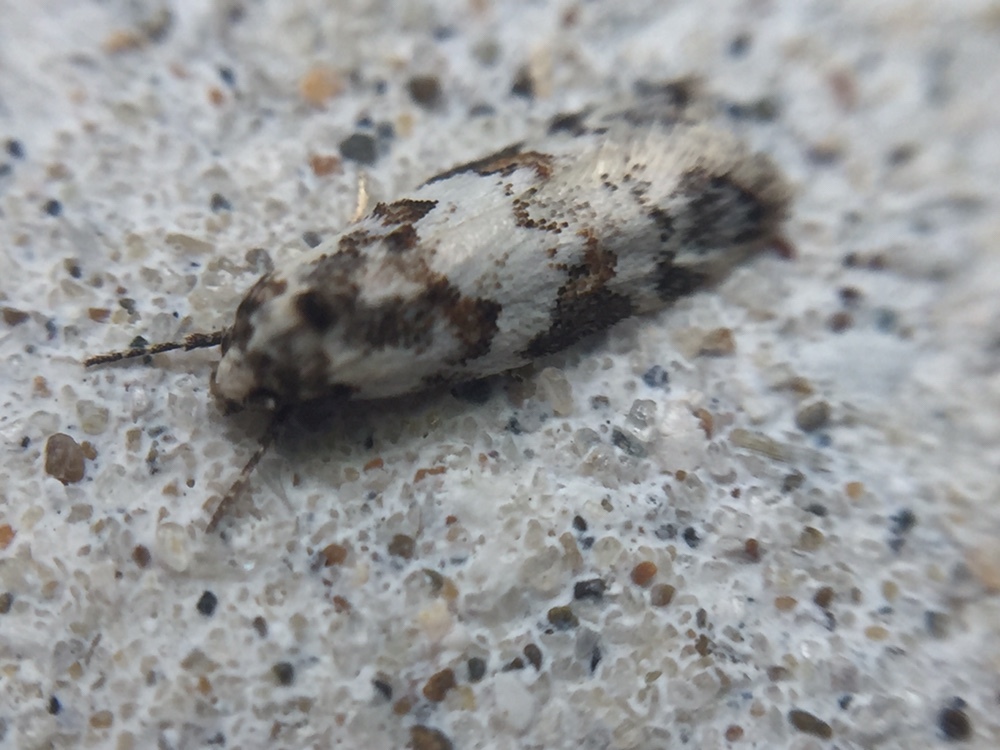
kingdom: Animalia
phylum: Arthropoda
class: Insecta
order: Lepidoptera
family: Oecophoridae
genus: Trachypepla
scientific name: Trachypepla galaxias
